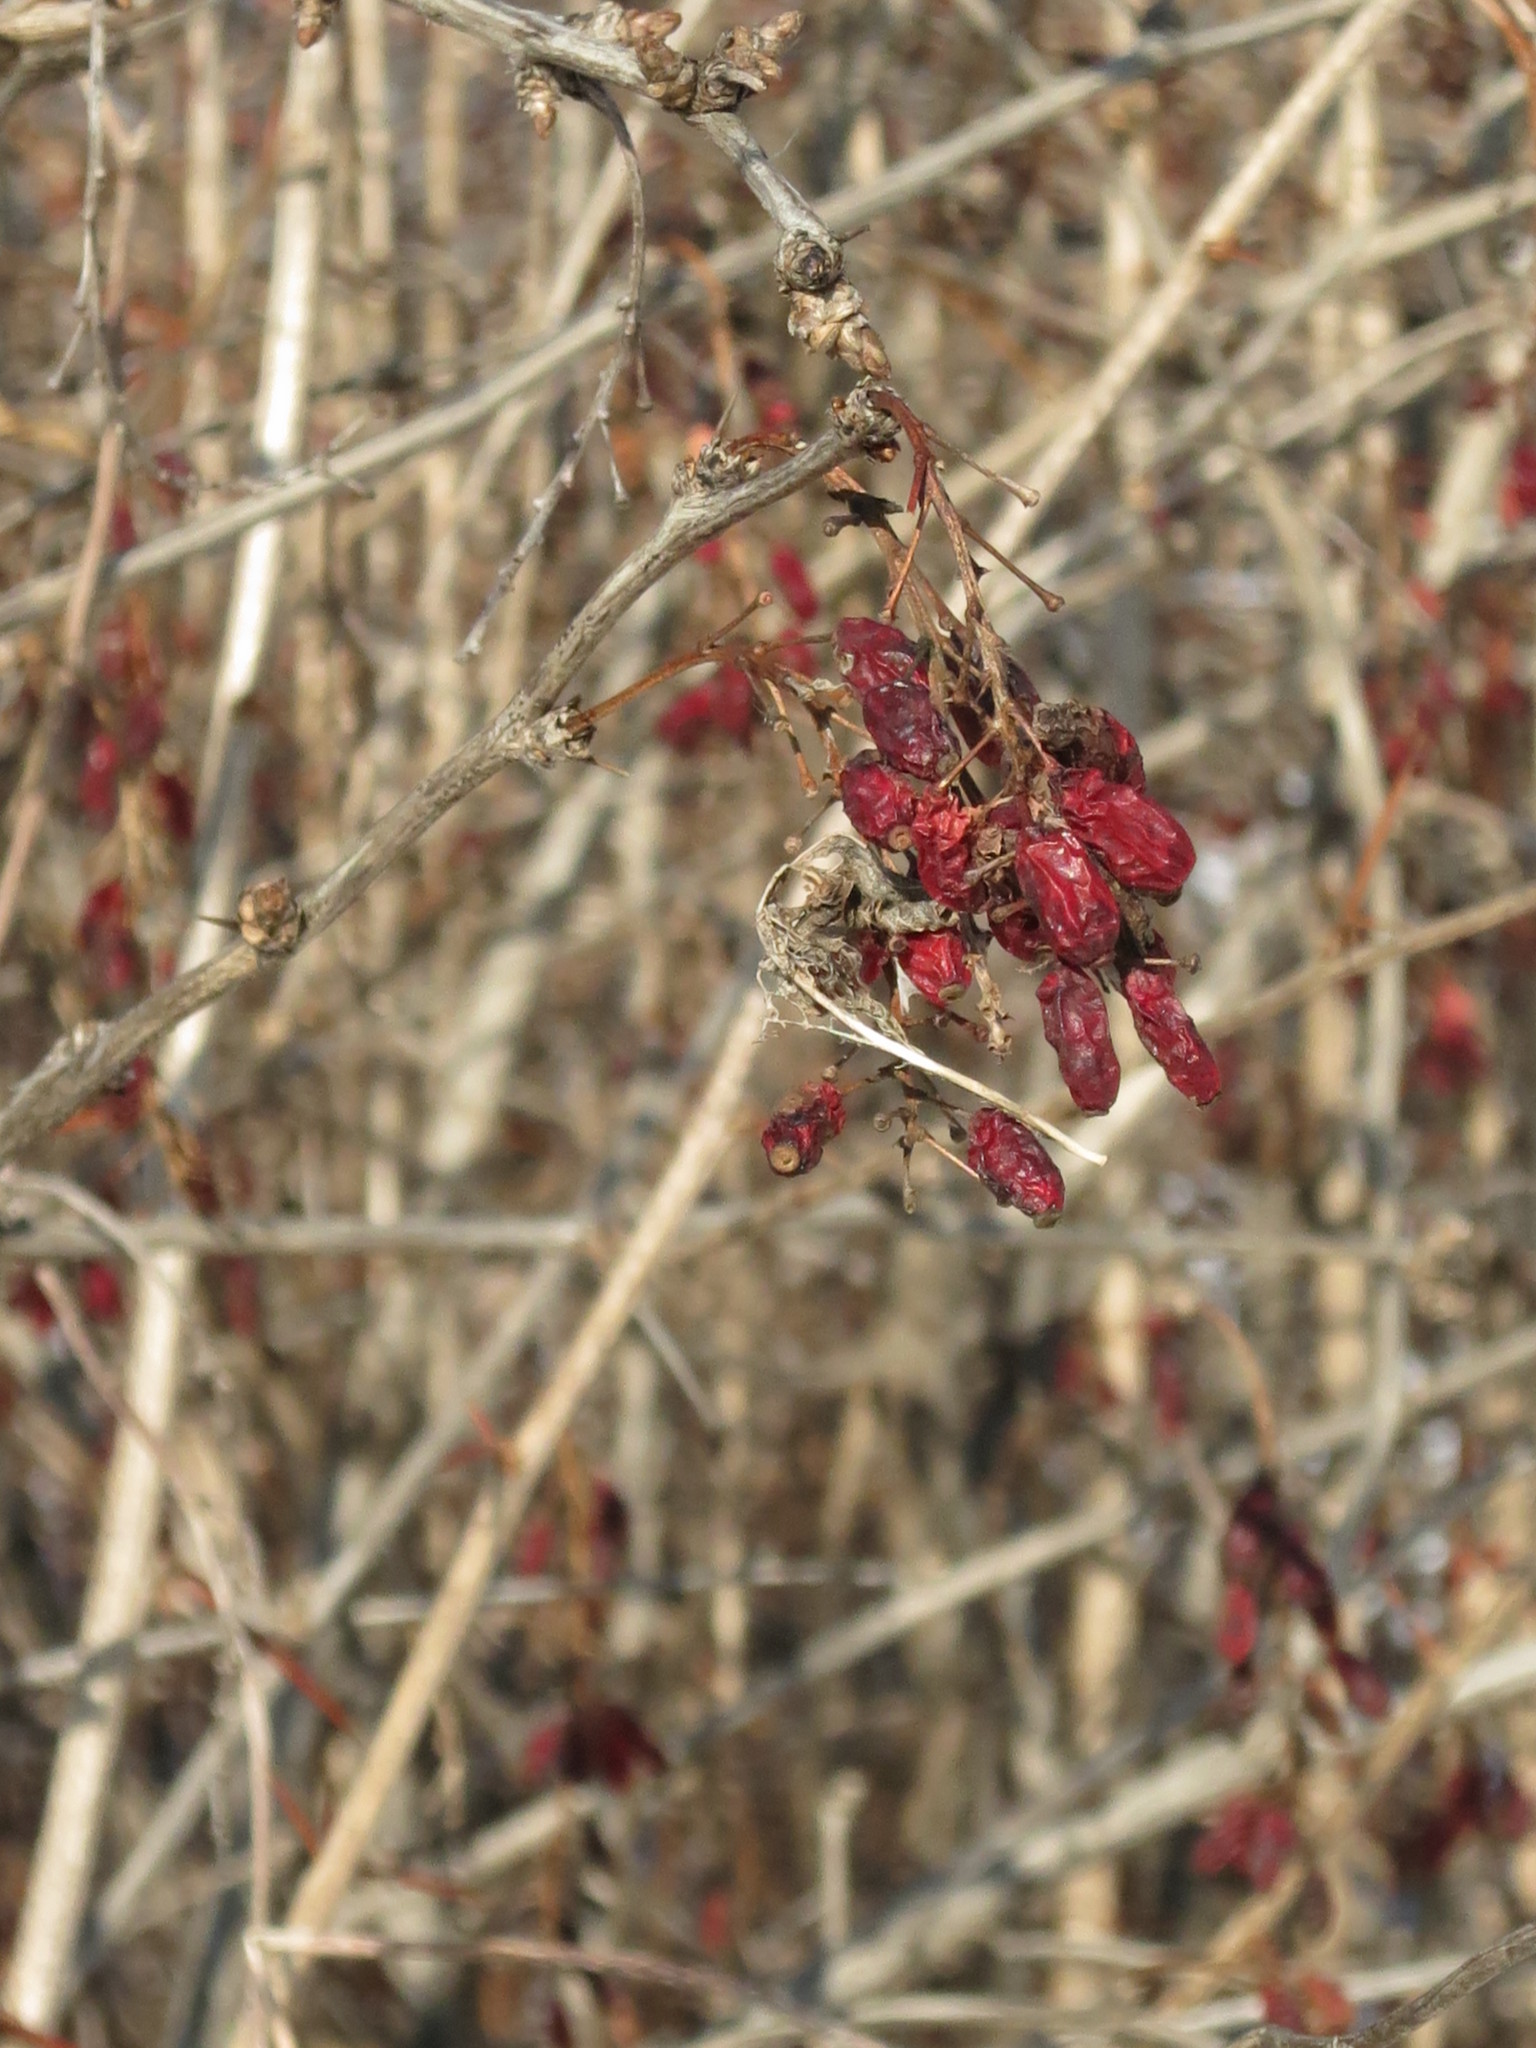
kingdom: Plantae
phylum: Tracheophyta
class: Magnoliopsida
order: Ranunculales
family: Berberidaceae
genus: Berberis
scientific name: Berberis amurensis
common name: Amur barberry
